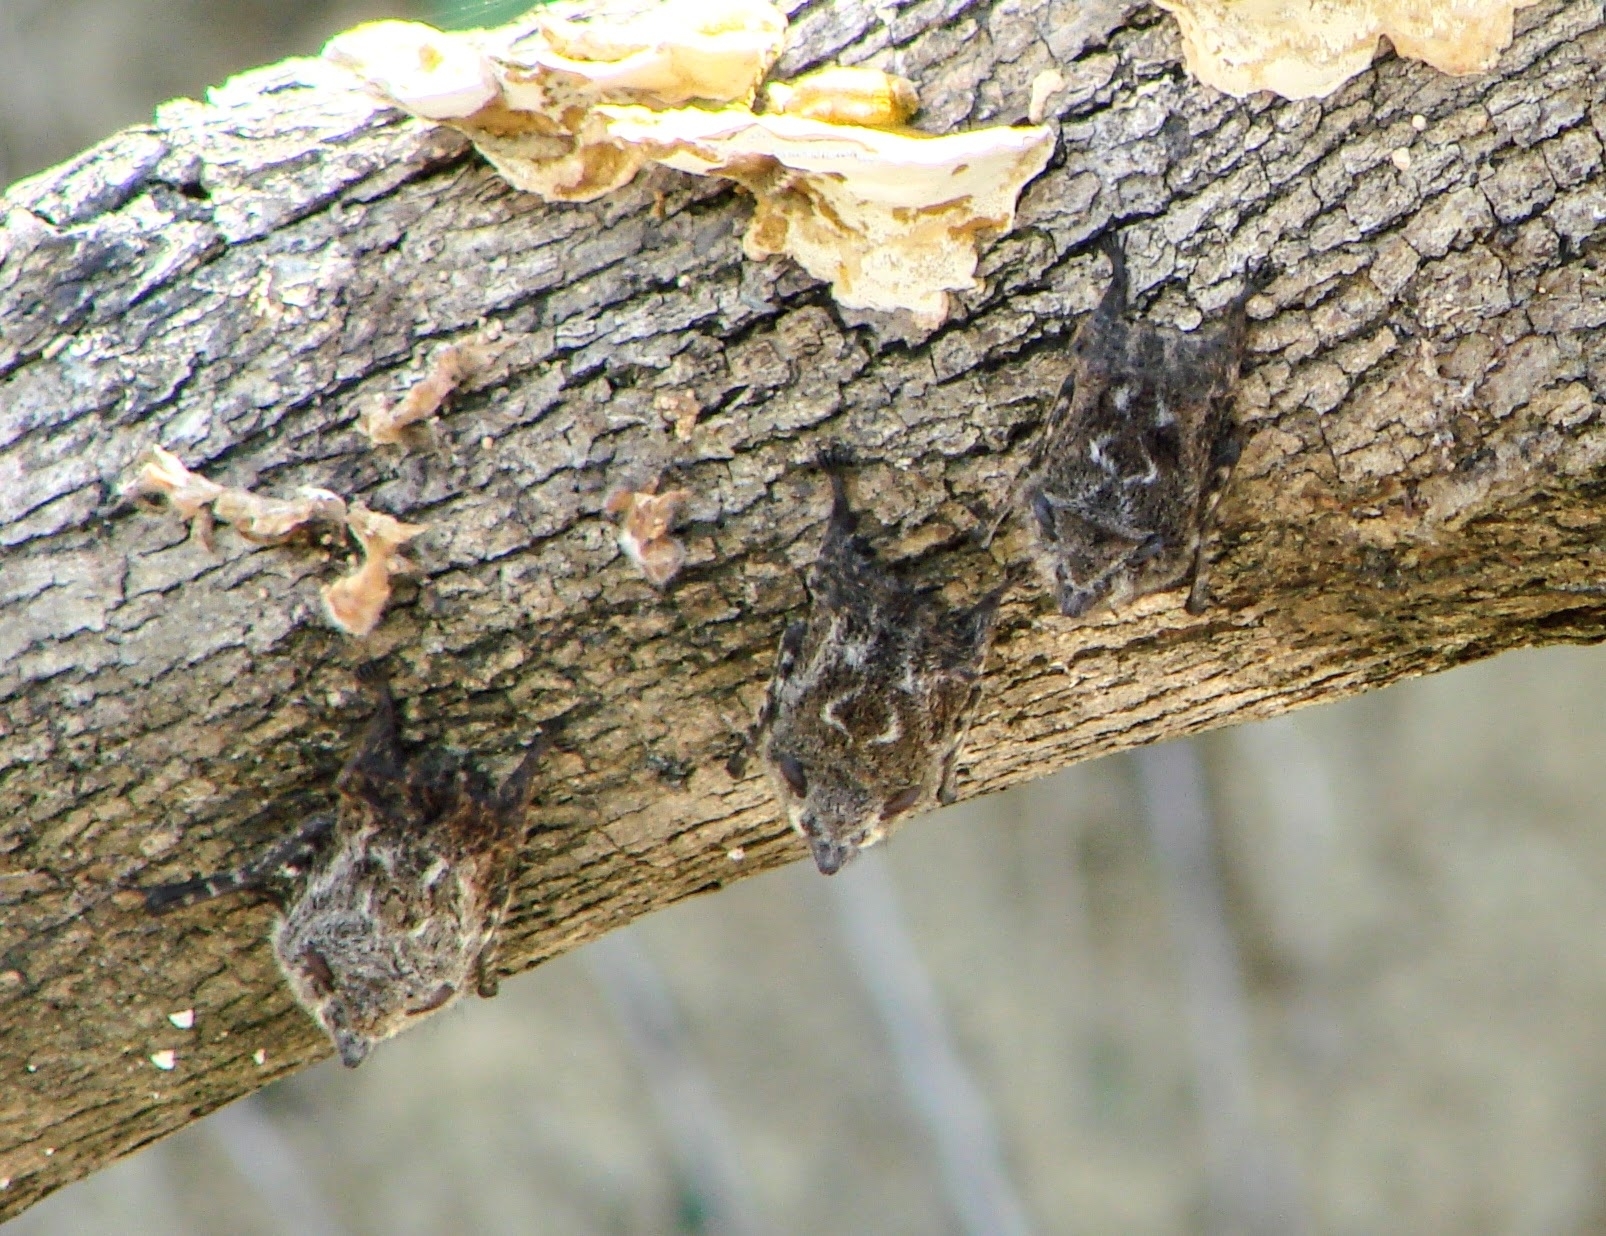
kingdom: Animalia
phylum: Chordata
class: Mammalia
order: Chiroptera
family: Emballonuridae
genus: Rhynchonycteris
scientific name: Rhynchonycteris naso
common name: Proboscis bat
